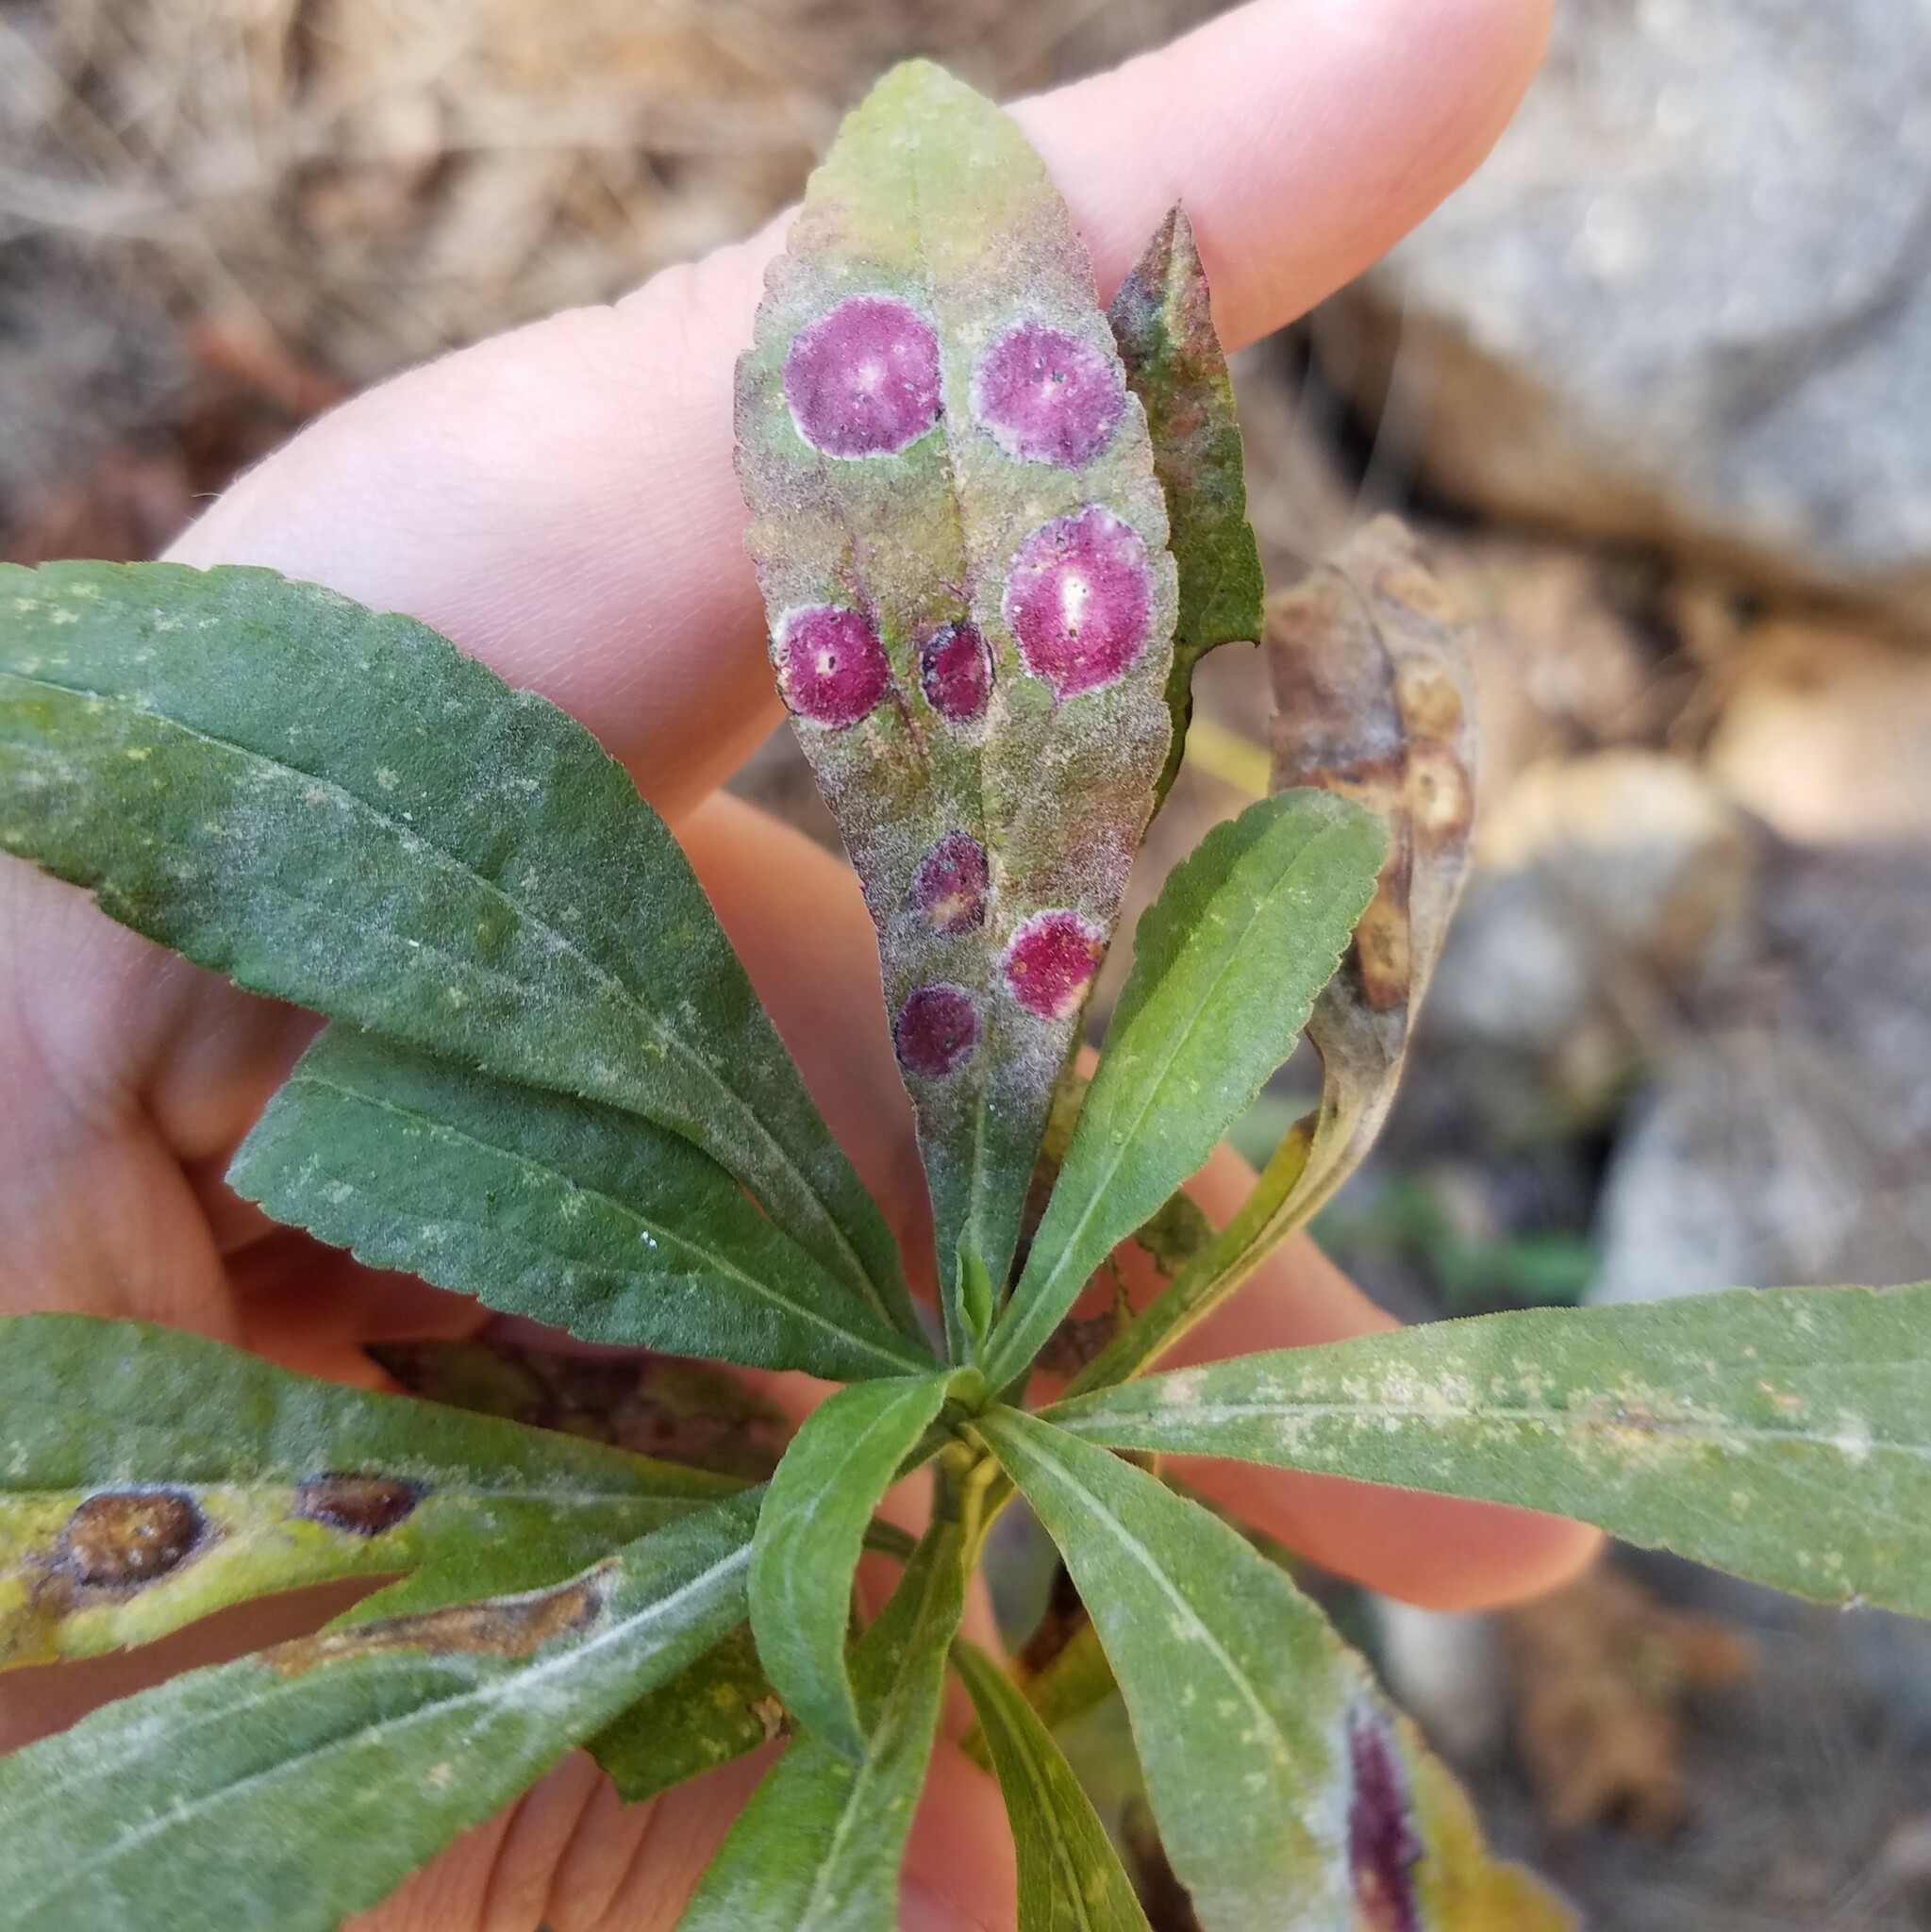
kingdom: Animalia
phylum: Arthropoda
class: Insecta
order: Diptera
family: Cecidomyiidae
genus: Asteromyia
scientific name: Asteromyia carbonifera
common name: Carbonifera goldenrod gall midge
